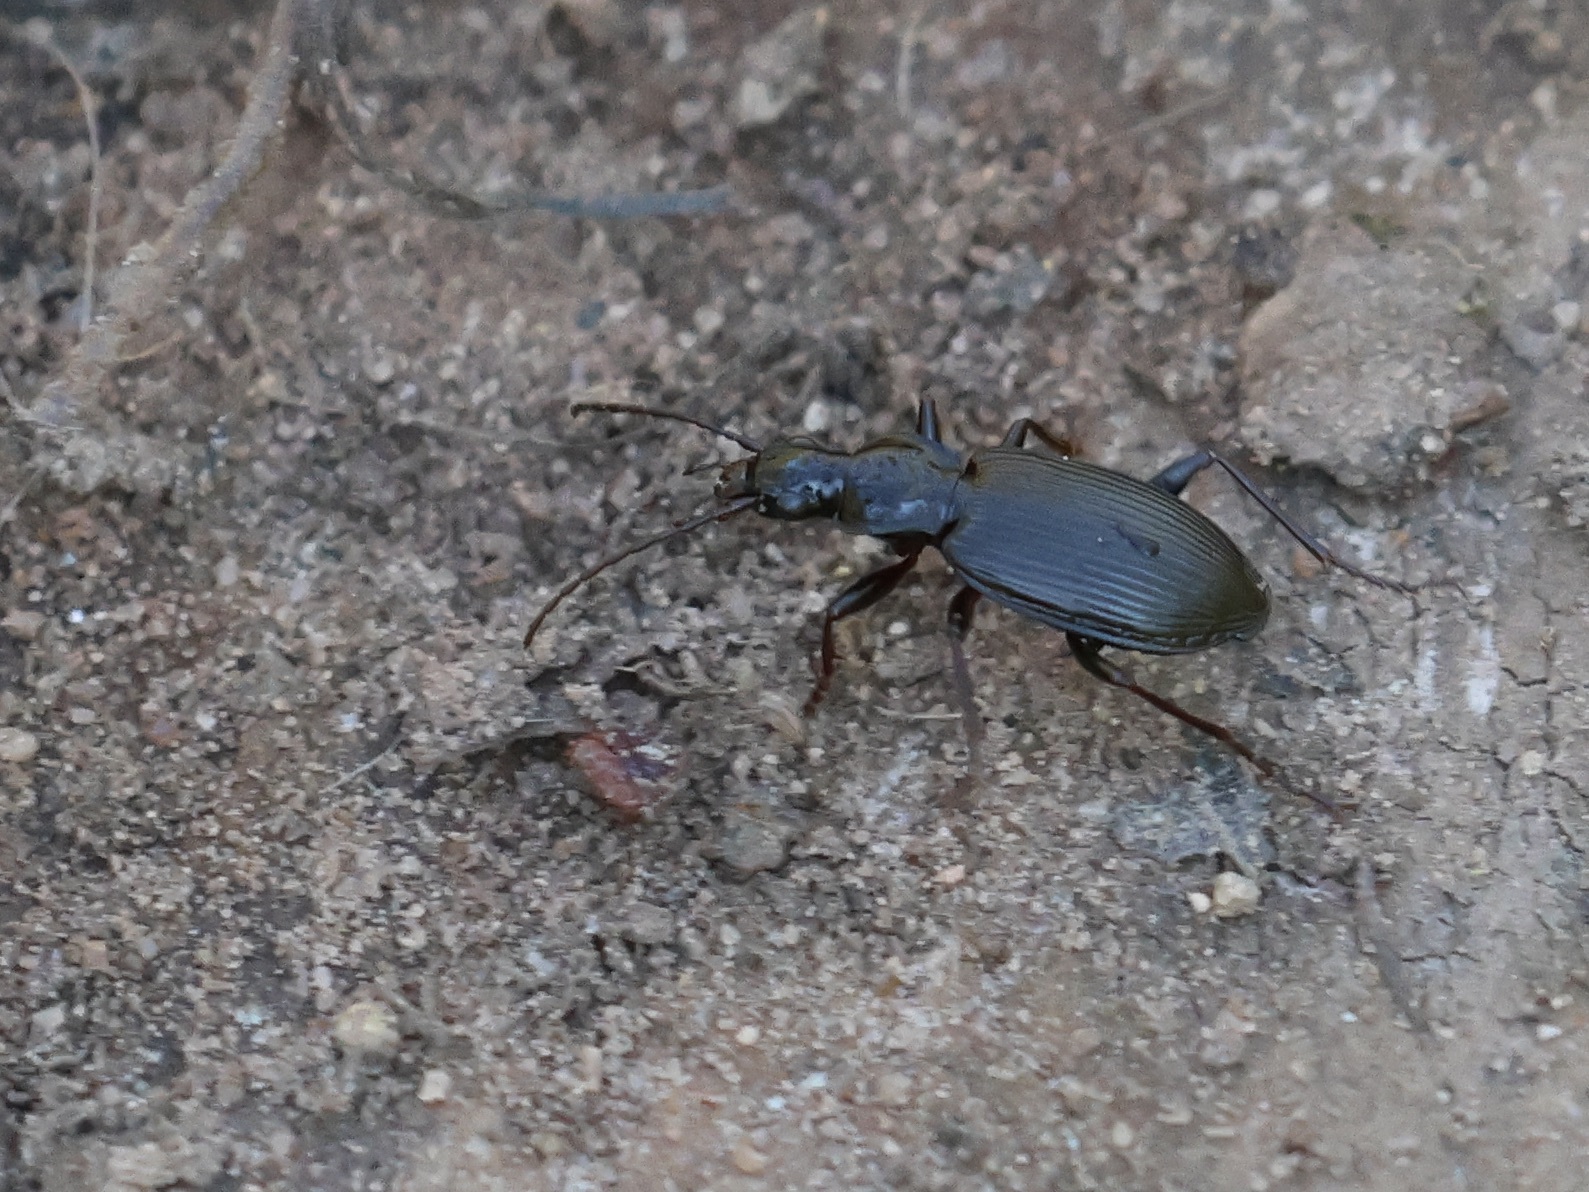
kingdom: Animalia
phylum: Arthropoda
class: Insecta
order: Coleoptera
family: Carabidae
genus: Platynus
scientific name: Platynus assimilis
